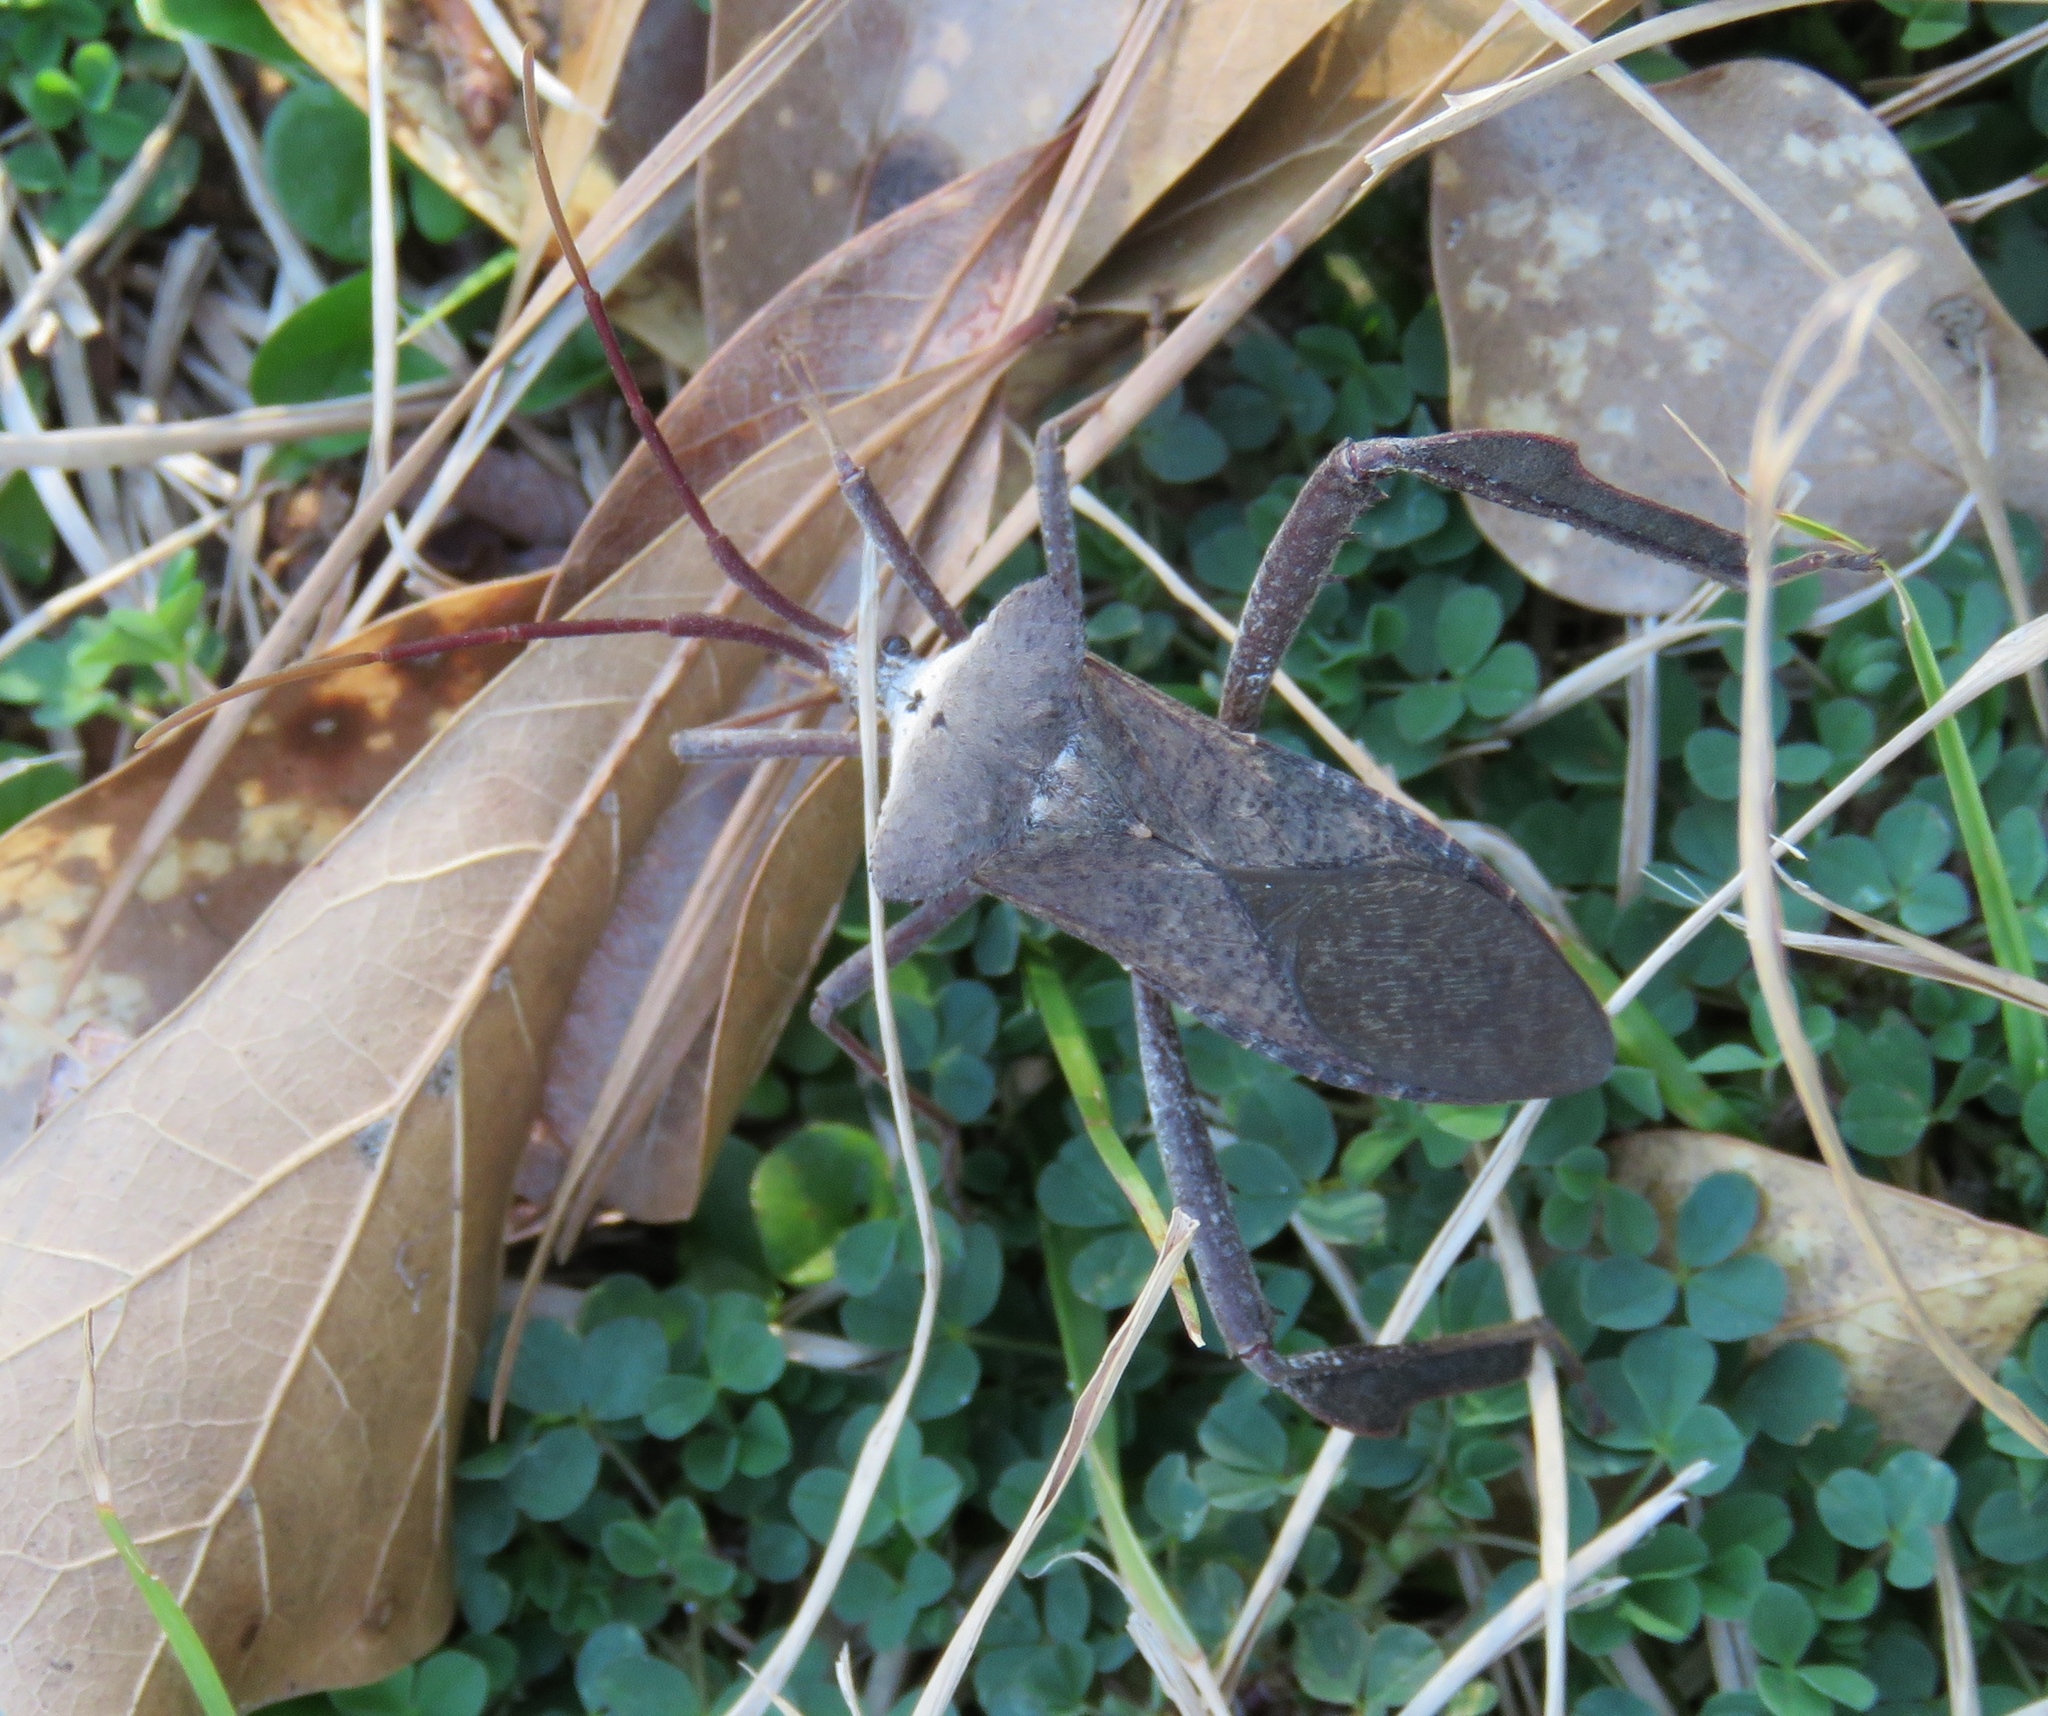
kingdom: Animalia
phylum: Arthropoda
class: Insecta
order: Hemiptera
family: Coreidae
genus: Acanthocephala
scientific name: Acanthocephala declivis
